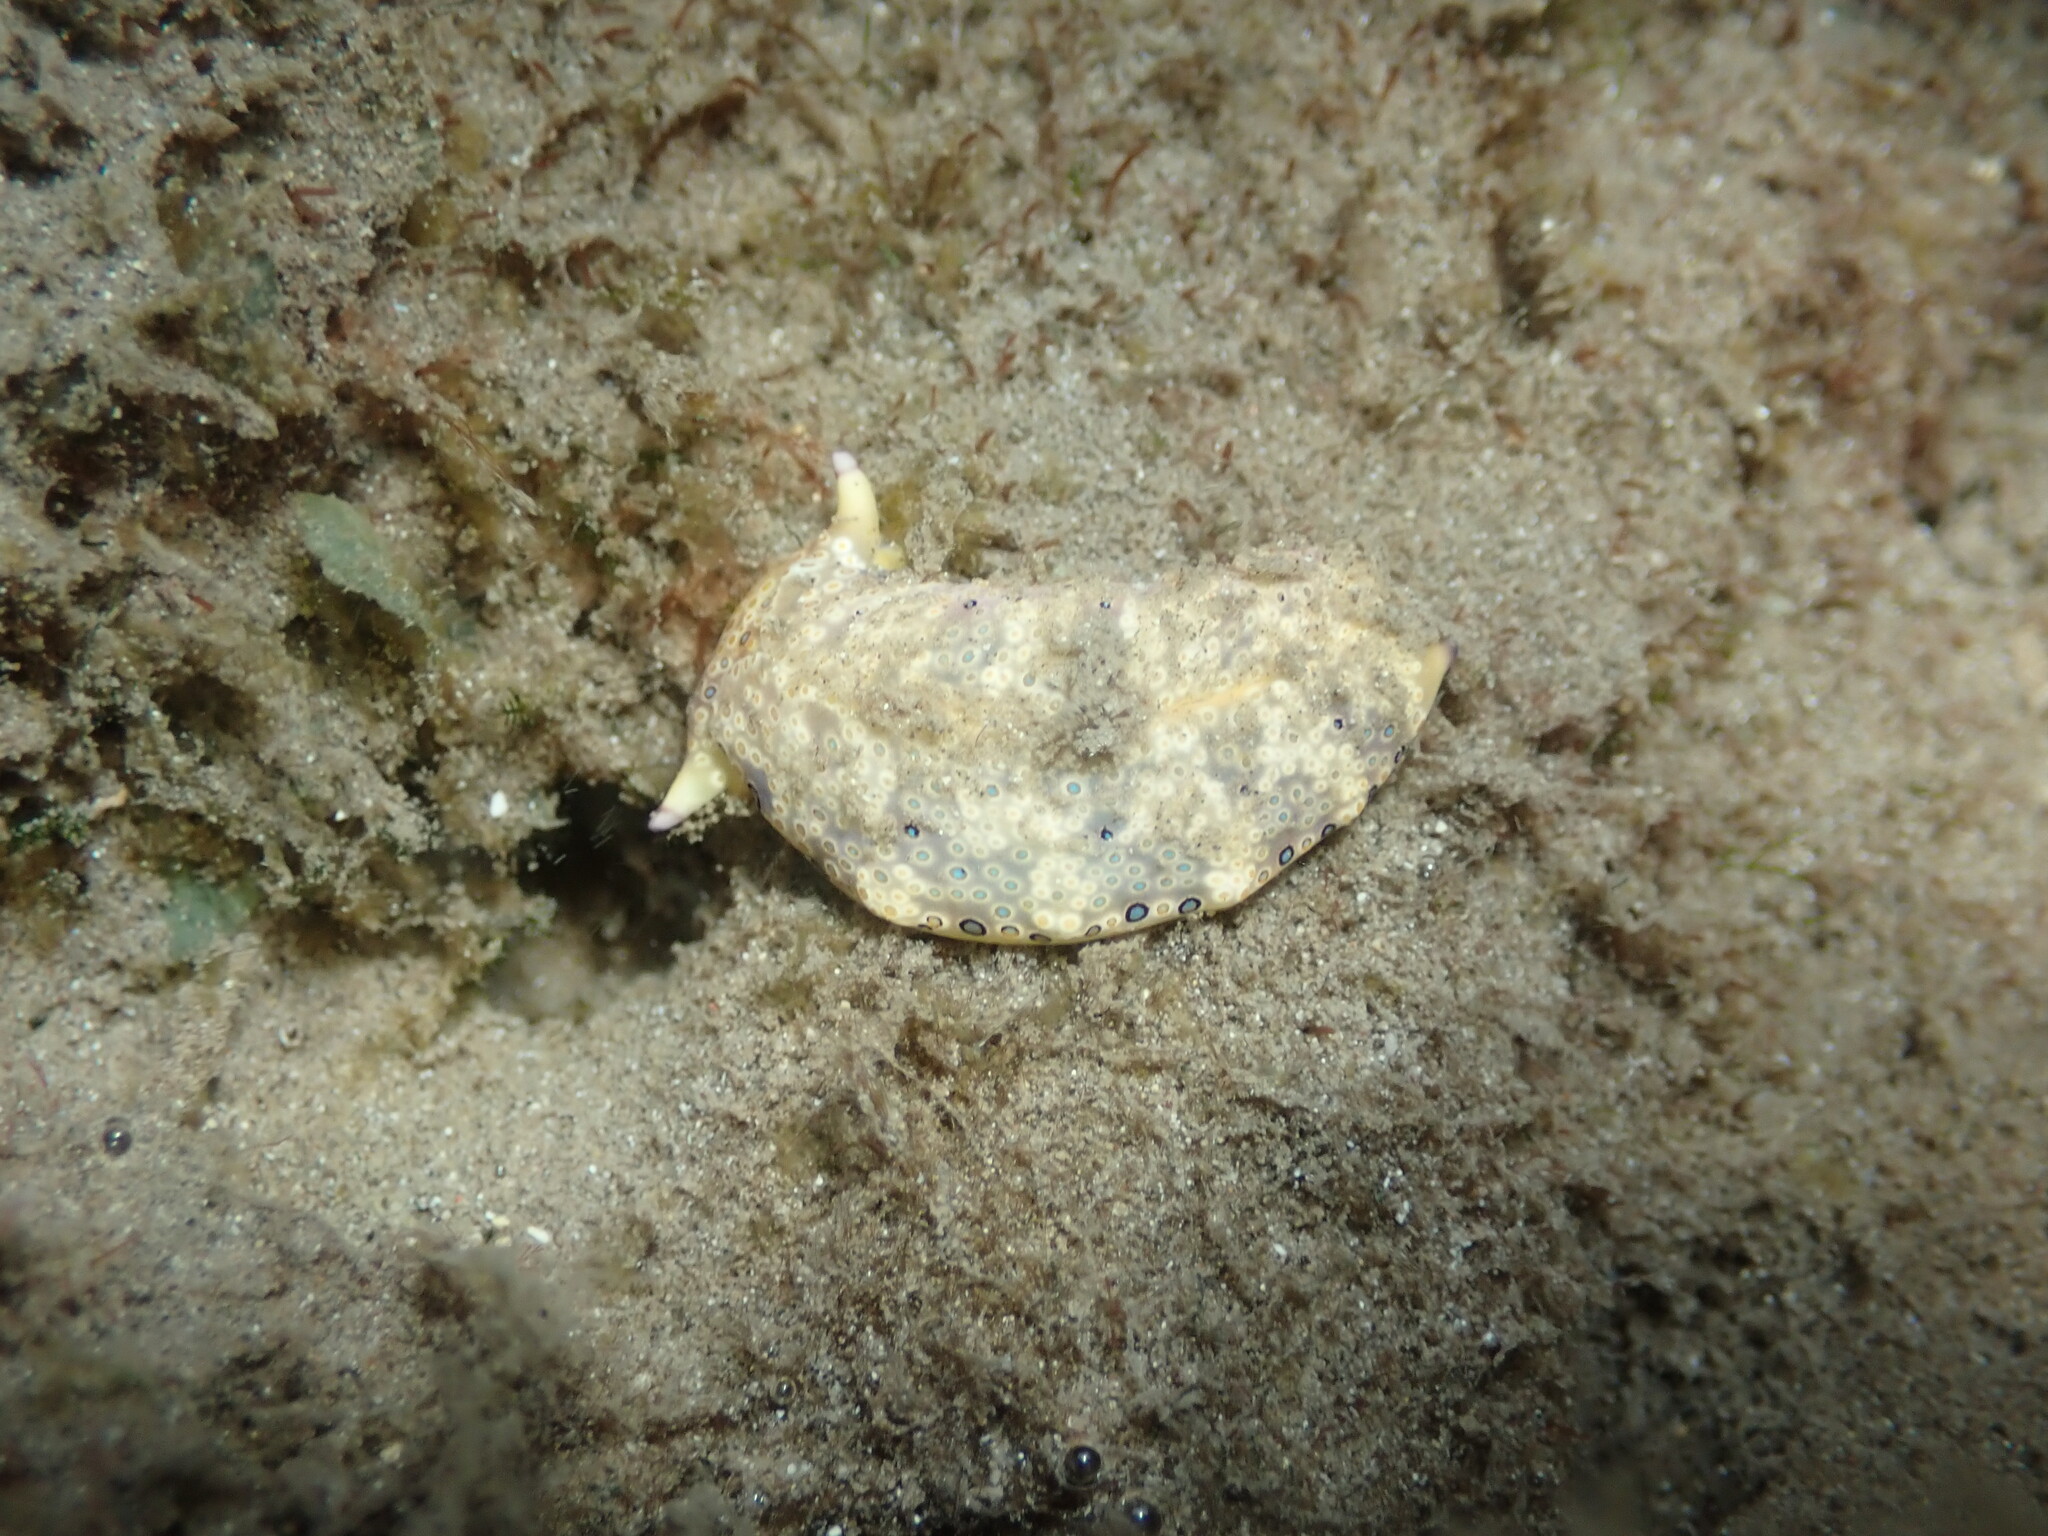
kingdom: Animalia
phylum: Mollusca
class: Gastropoda
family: Plakobranchidae
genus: Plakobranchus
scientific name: Plakobranchus ocellatus
